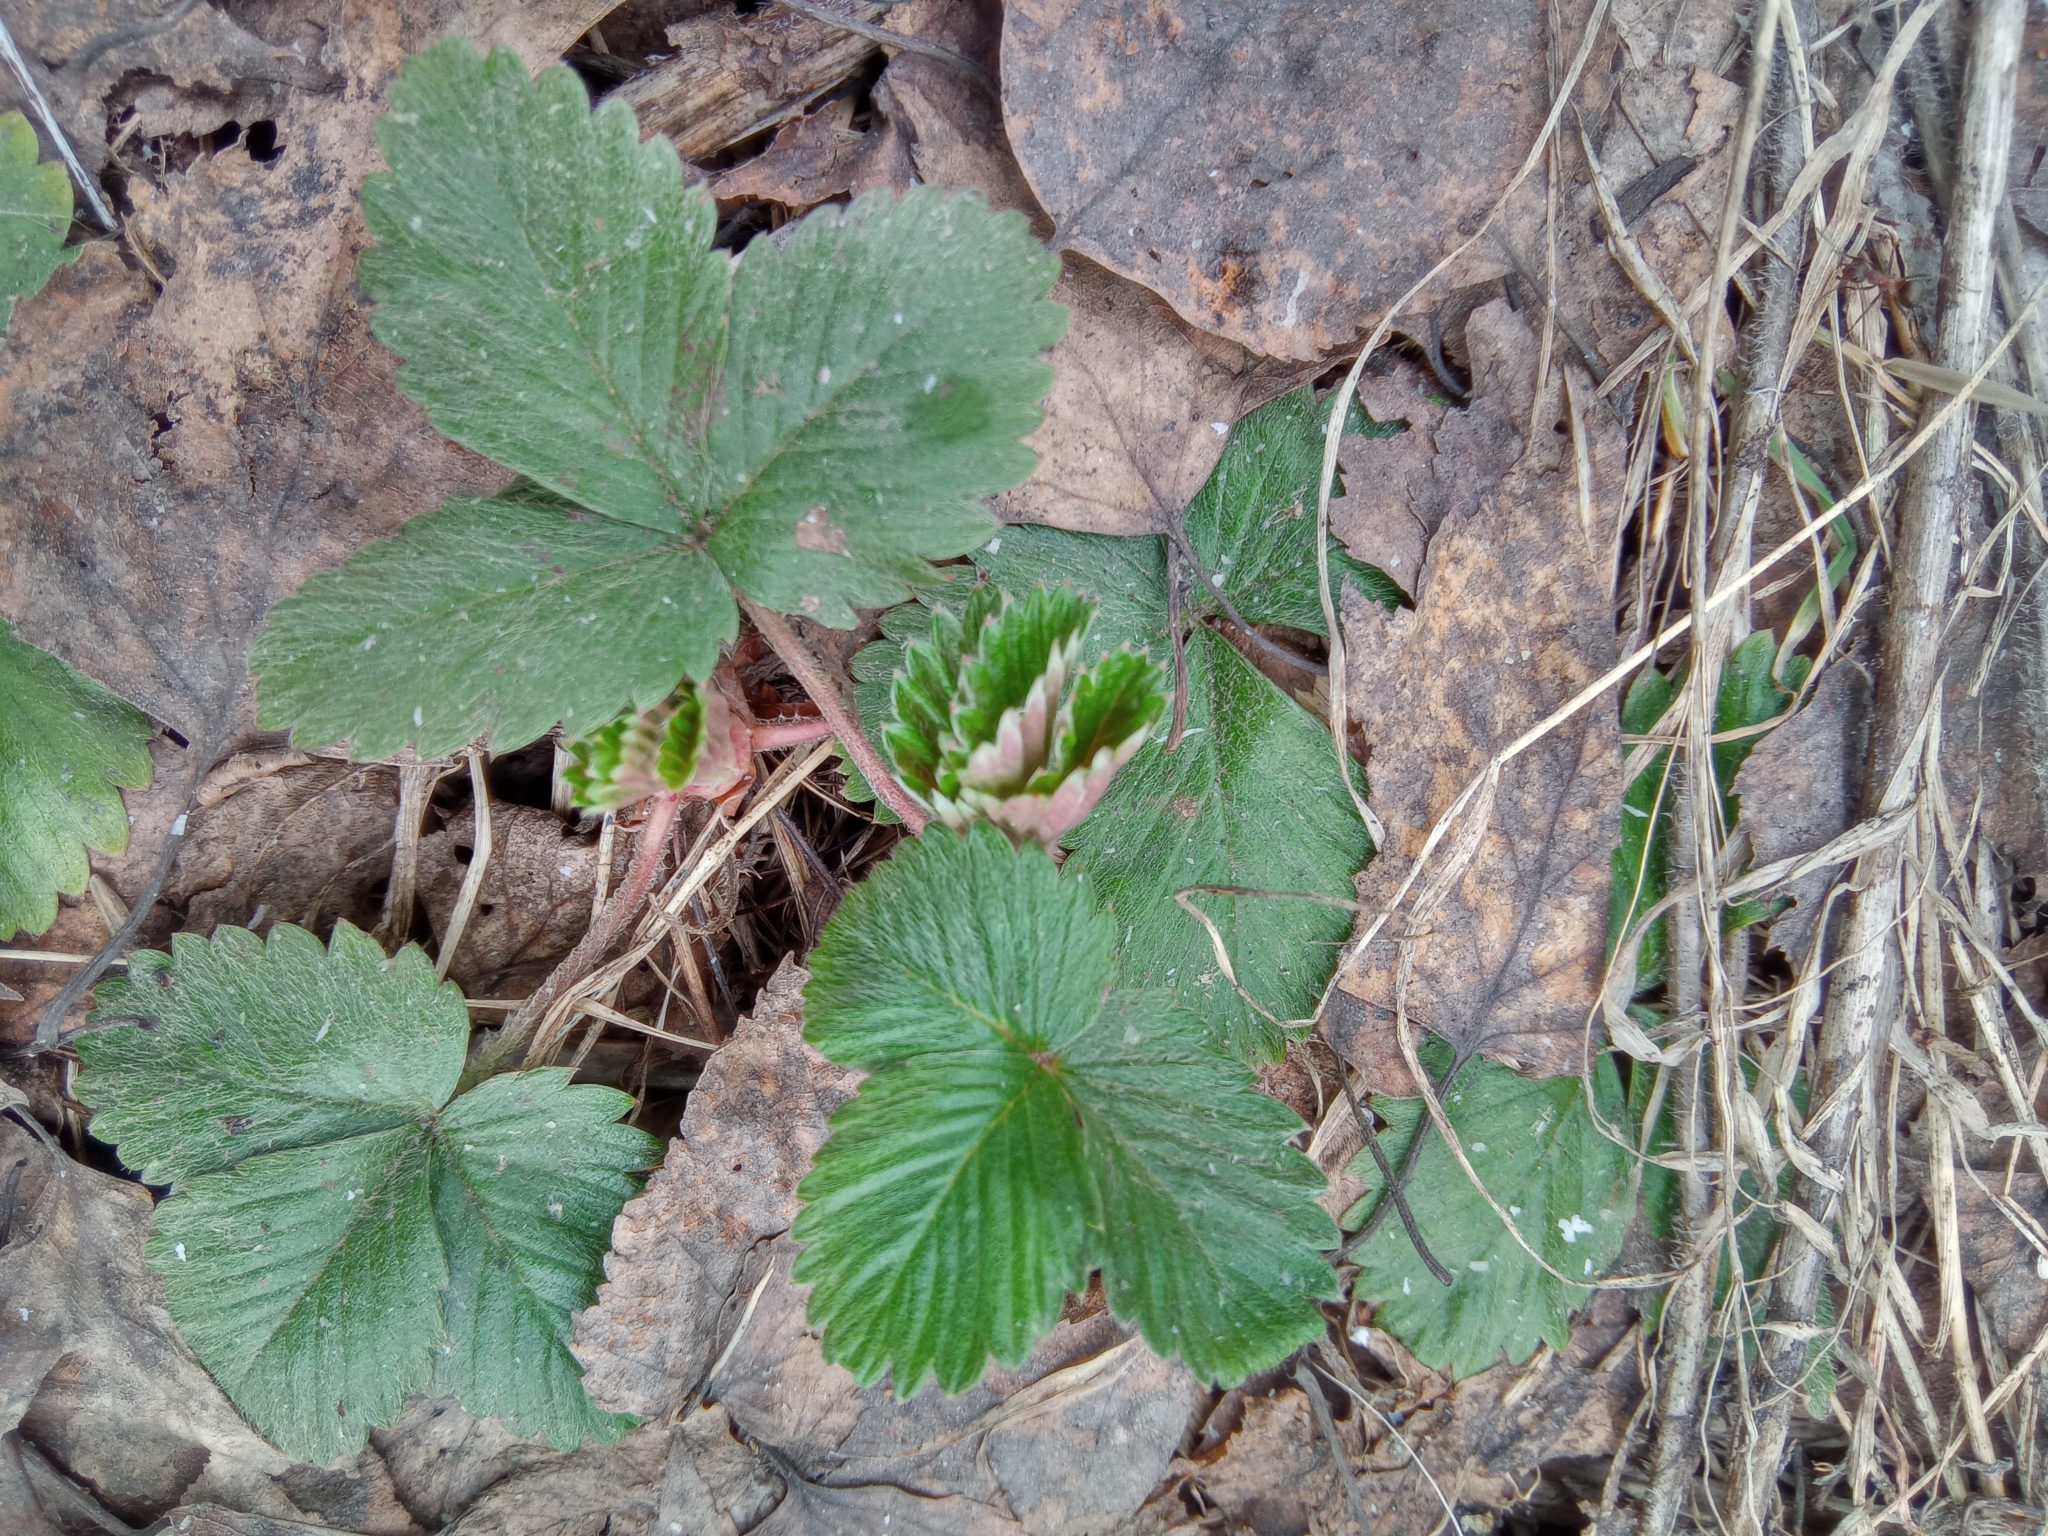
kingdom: Plantae
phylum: Tracheophyta
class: Magnoliopsida
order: Rosales
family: Rosaceae
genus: Fragaria
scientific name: Fragaria vesca
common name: Wild strawberry
